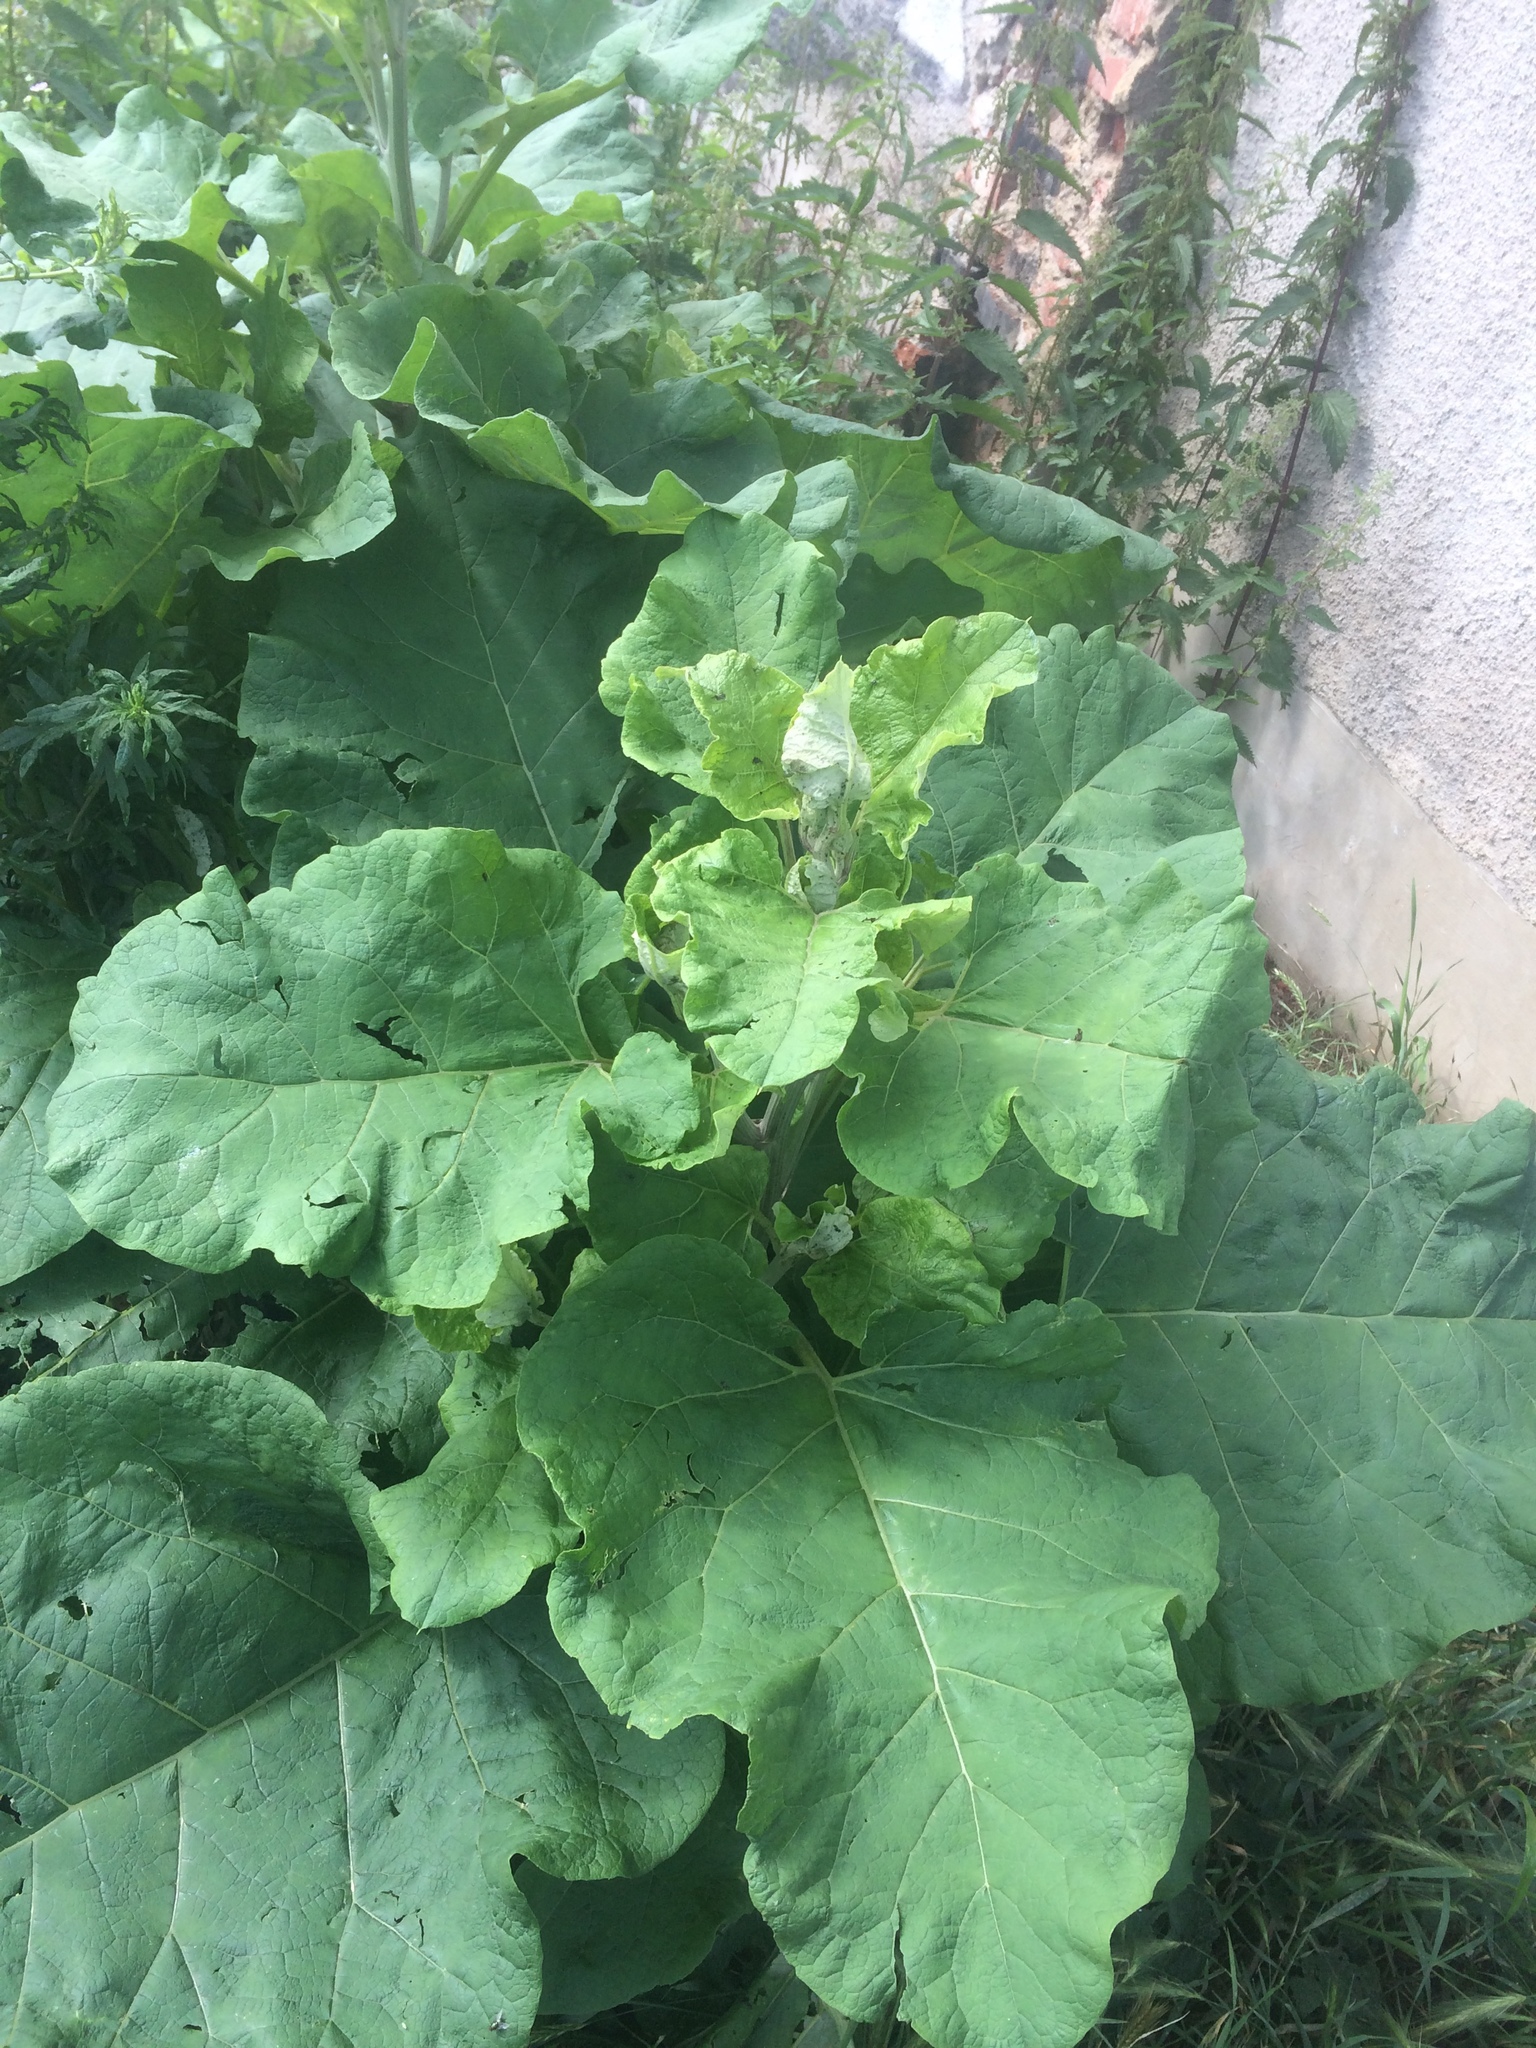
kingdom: Plantae
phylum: Tracheophyta
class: Magnoliopsida
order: Asterales
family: Asteraceae
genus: Arctium
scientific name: Arctium
